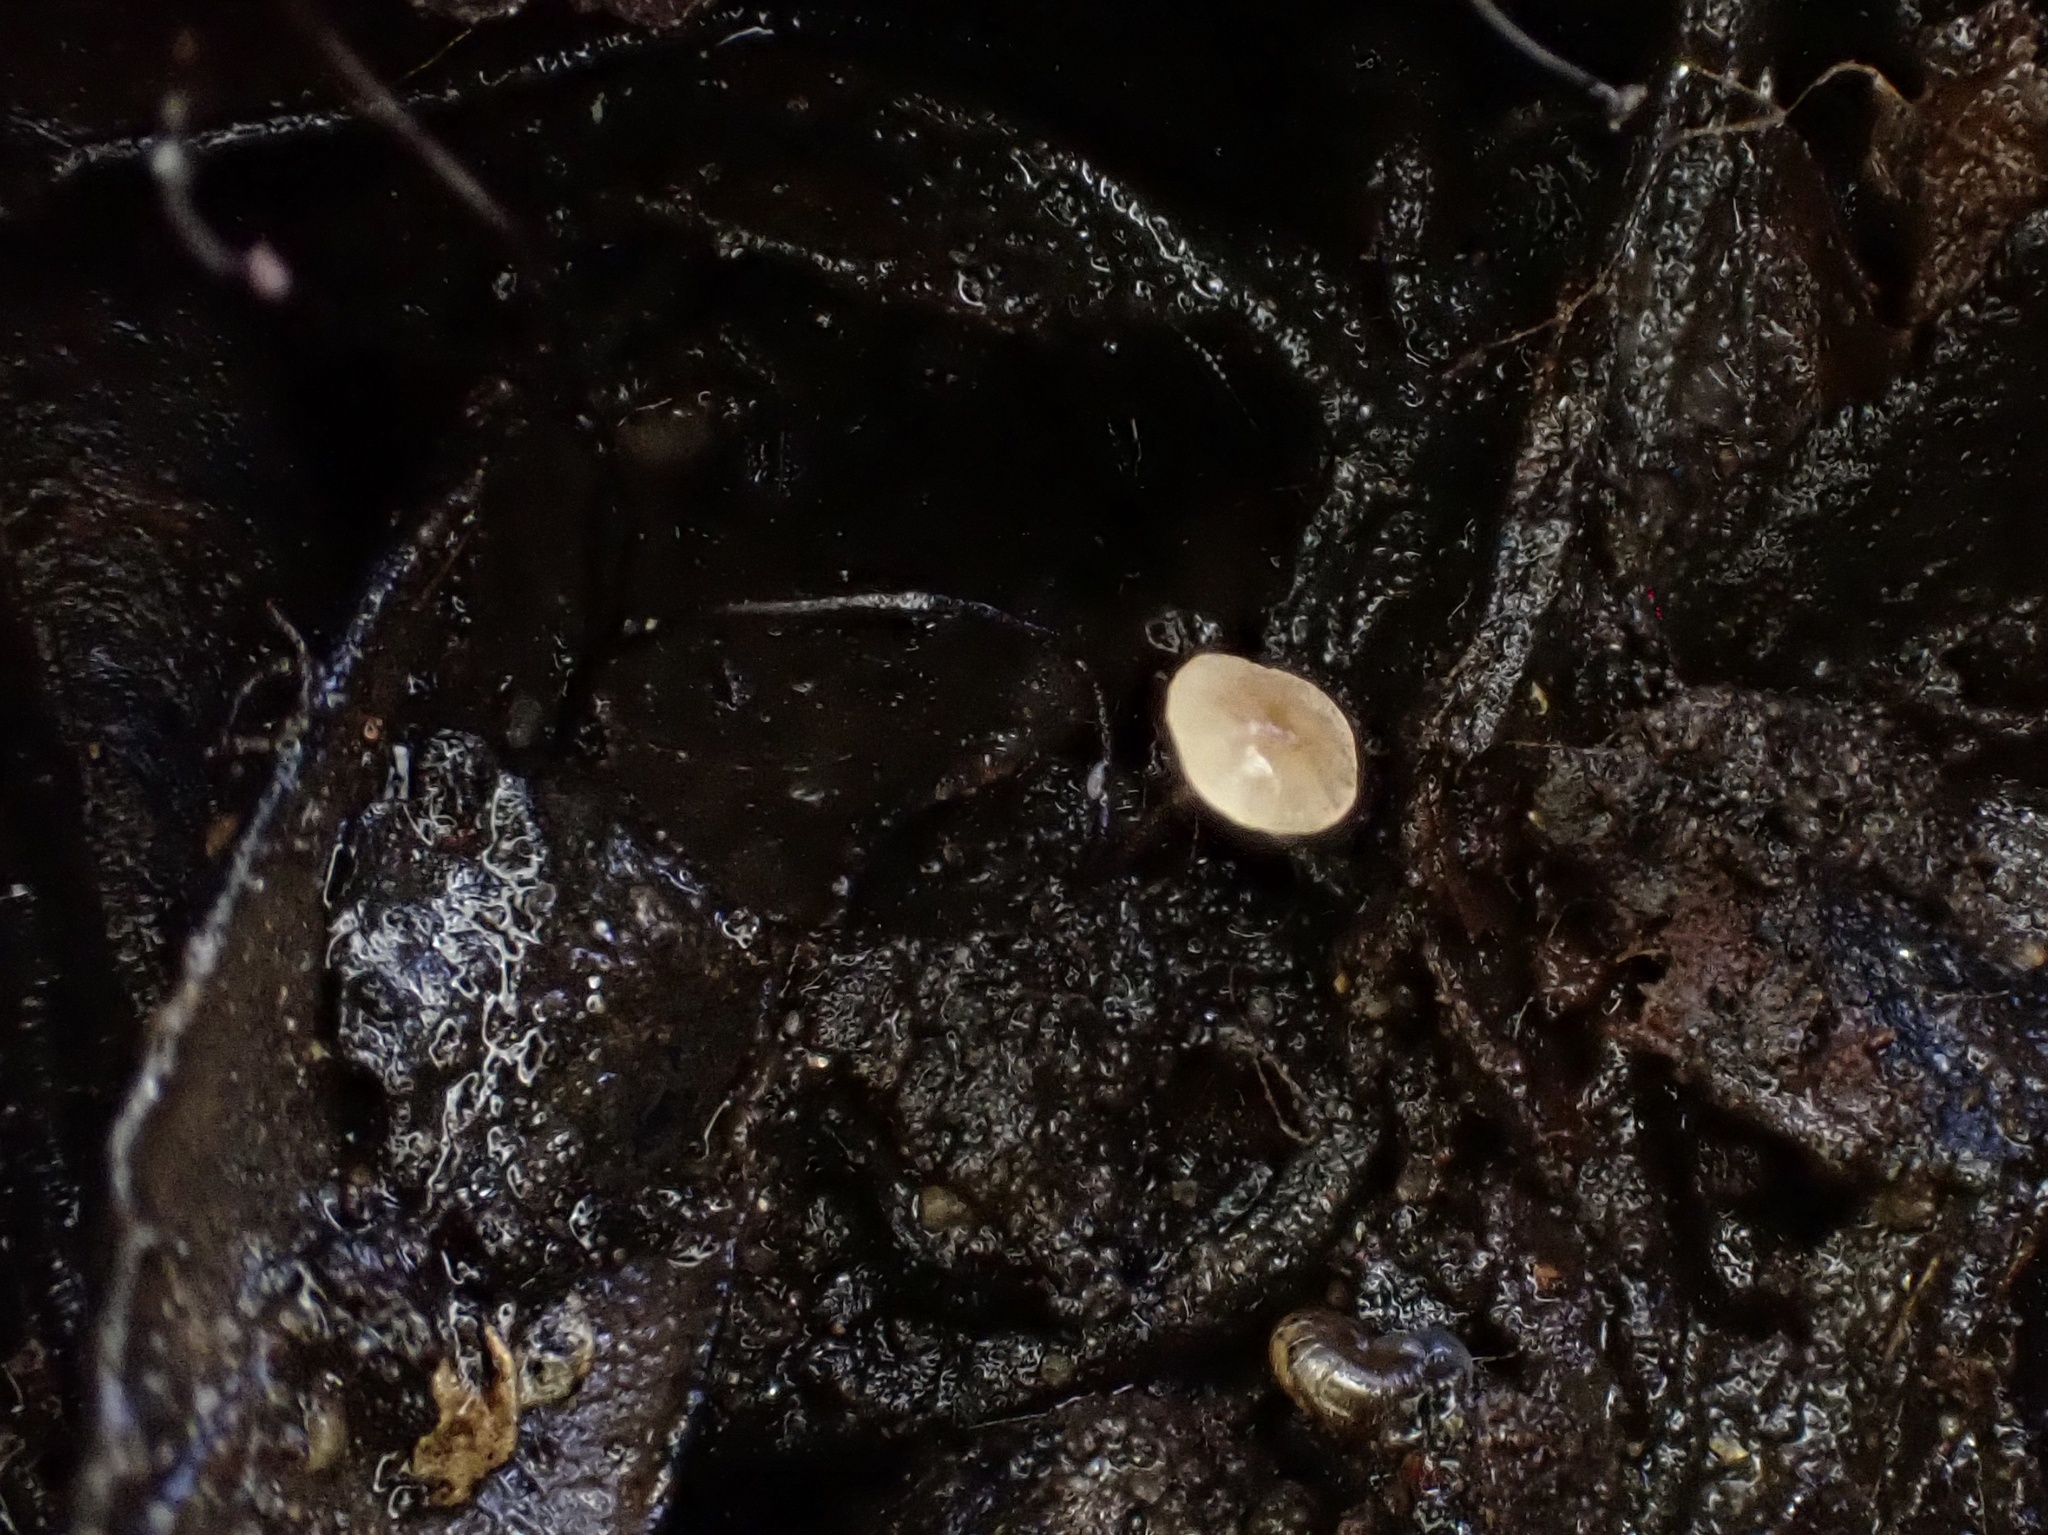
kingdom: Fungi
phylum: Basidiomycota
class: Agaricomycetes
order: Agaricales
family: Physalacriaceae
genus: Cryptomarasmius
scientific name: Cryptomarasmius corbariensis
